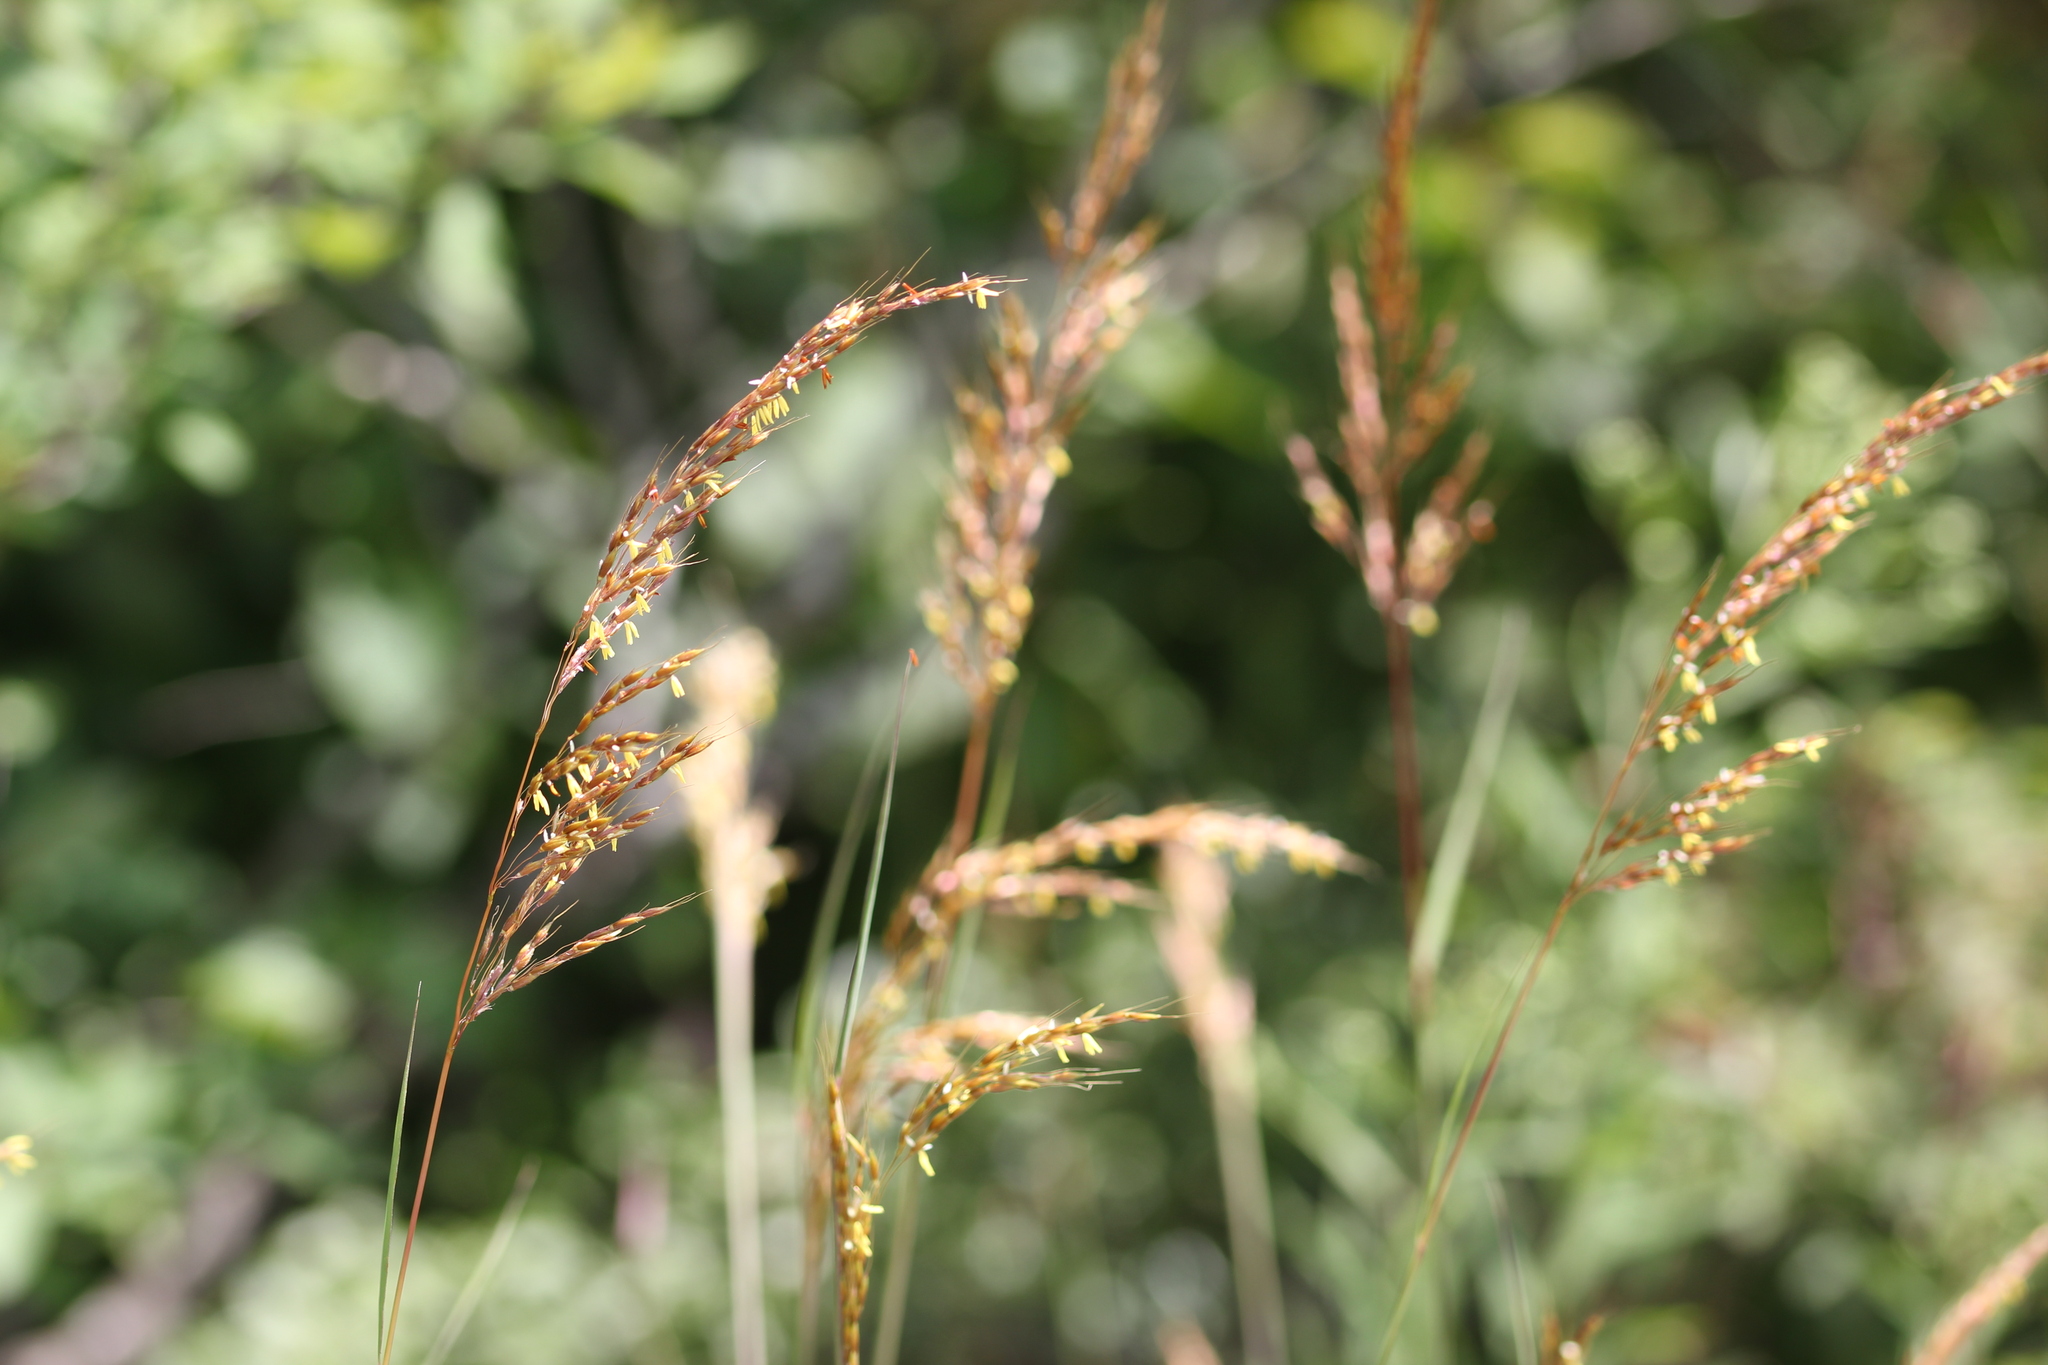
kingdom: Plantae
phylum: Tracheophyta
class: Liliopsida
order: Poales
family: Poaceae
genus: Sorghastrum
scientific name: Sorghastrum nutans
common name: Indian grass
